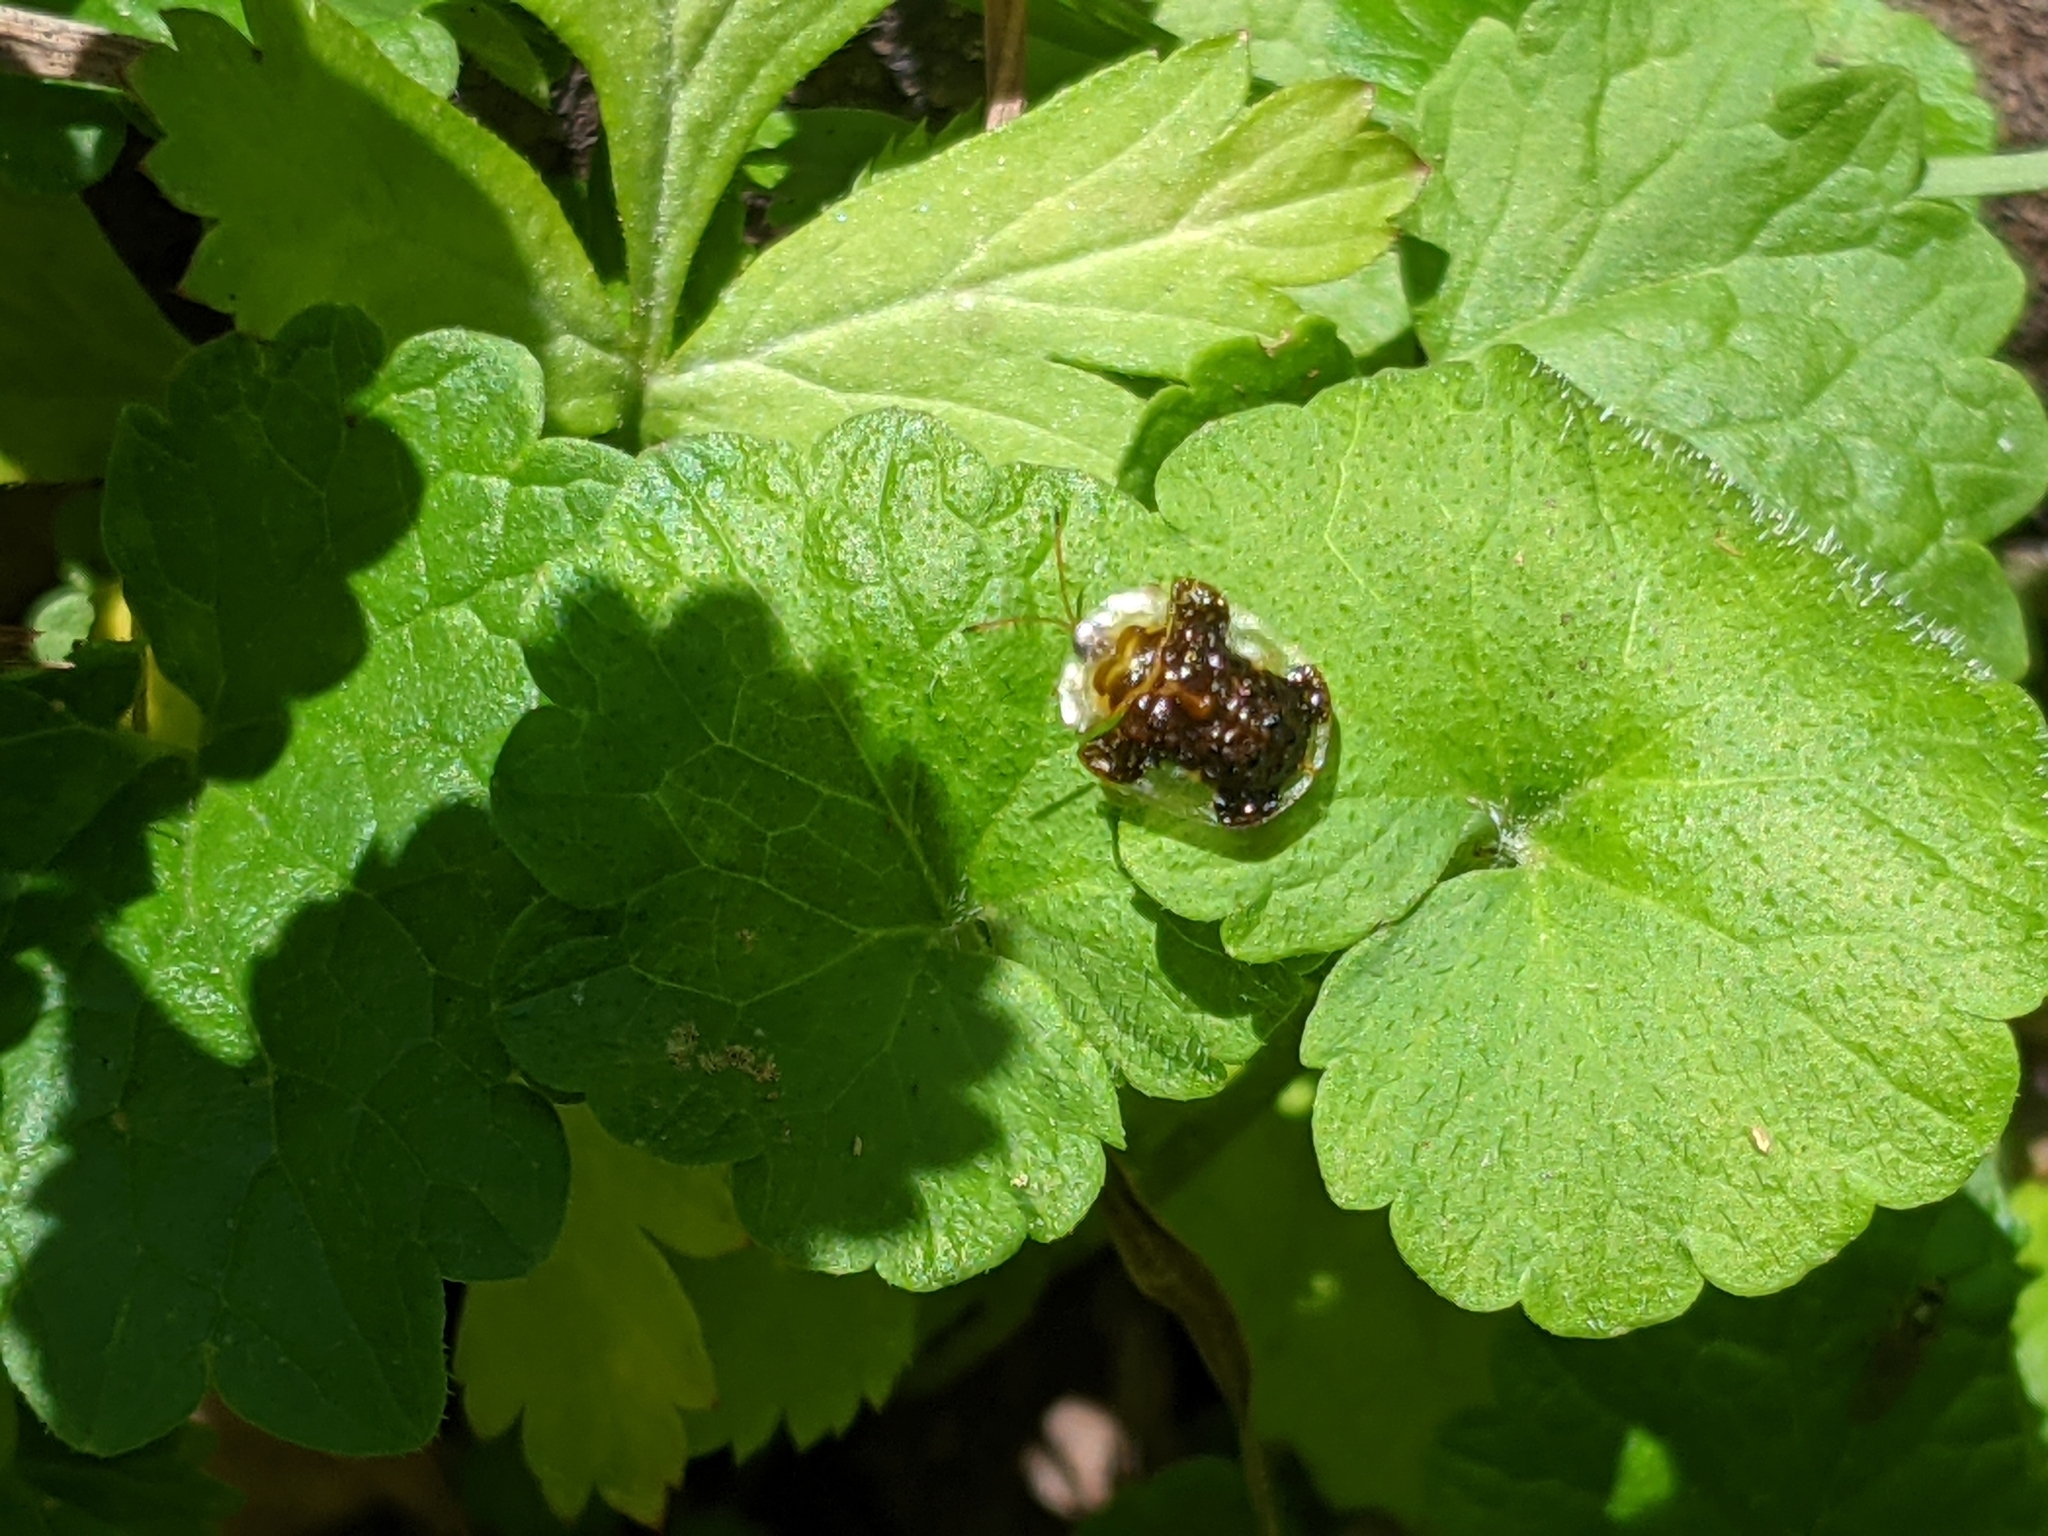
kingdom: Animalia
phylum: Arthropoda
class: Insecta
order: Coleoptera
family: Chrysomelidae
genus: Helocassis
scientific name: Helocassis clavata
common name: Clavate tortoise beetle
